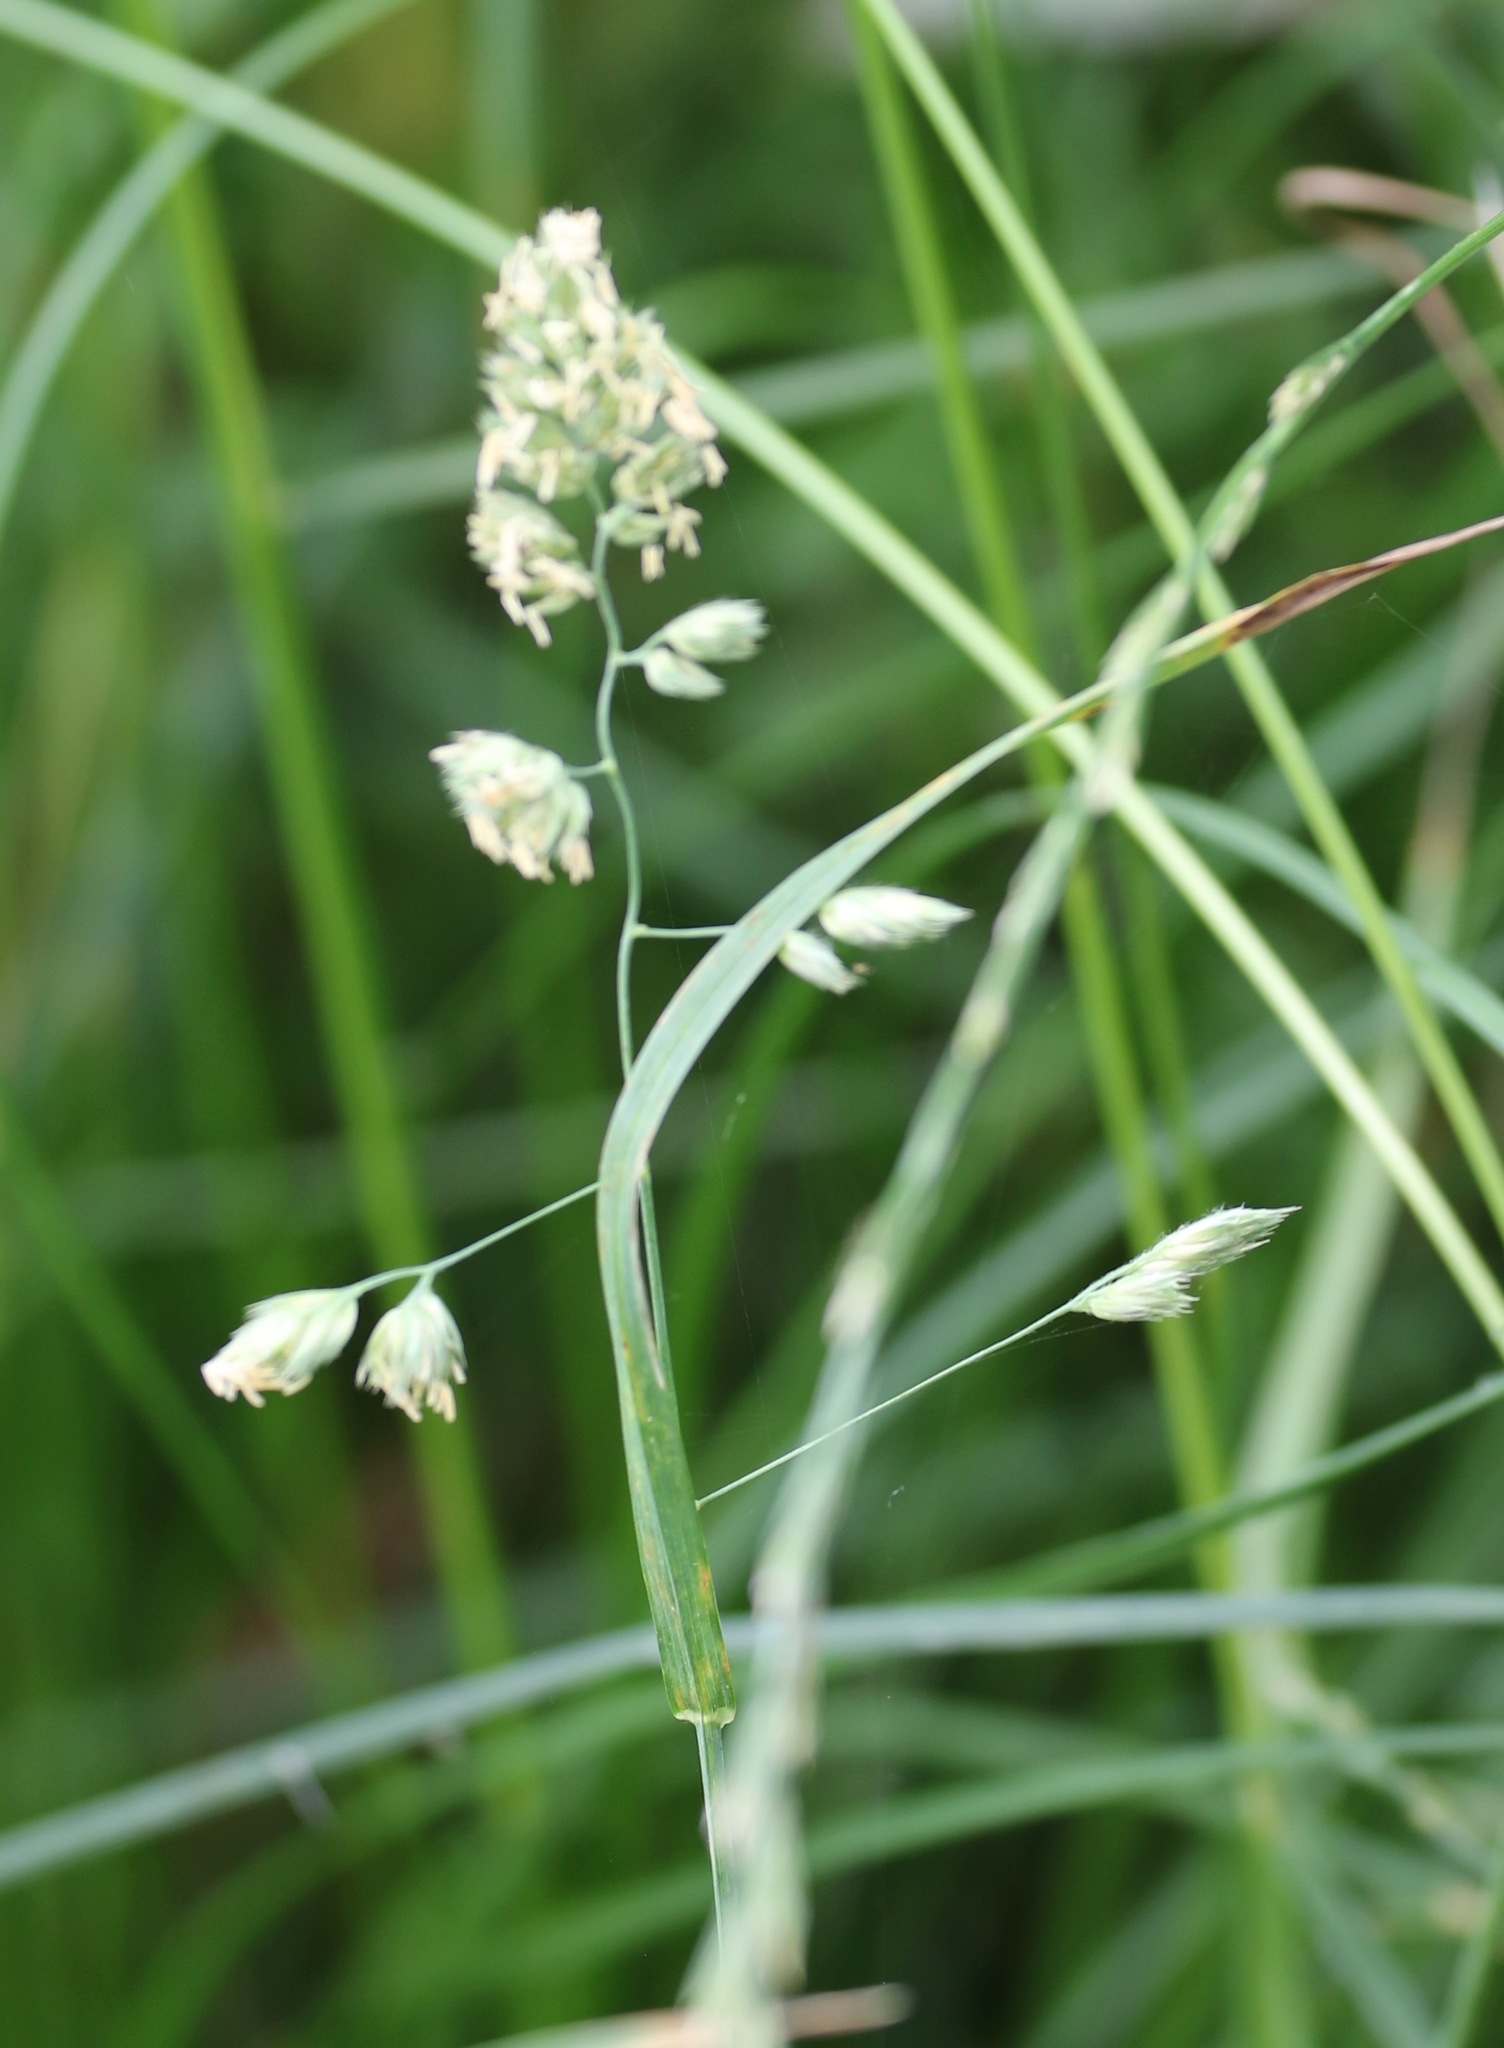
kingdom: Plantae
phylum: Tracheophyta
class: Liliopsida
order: Poales
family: Poaceae
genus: Dactylis
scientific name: Dactylis glomerata
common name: Orchardgrass
